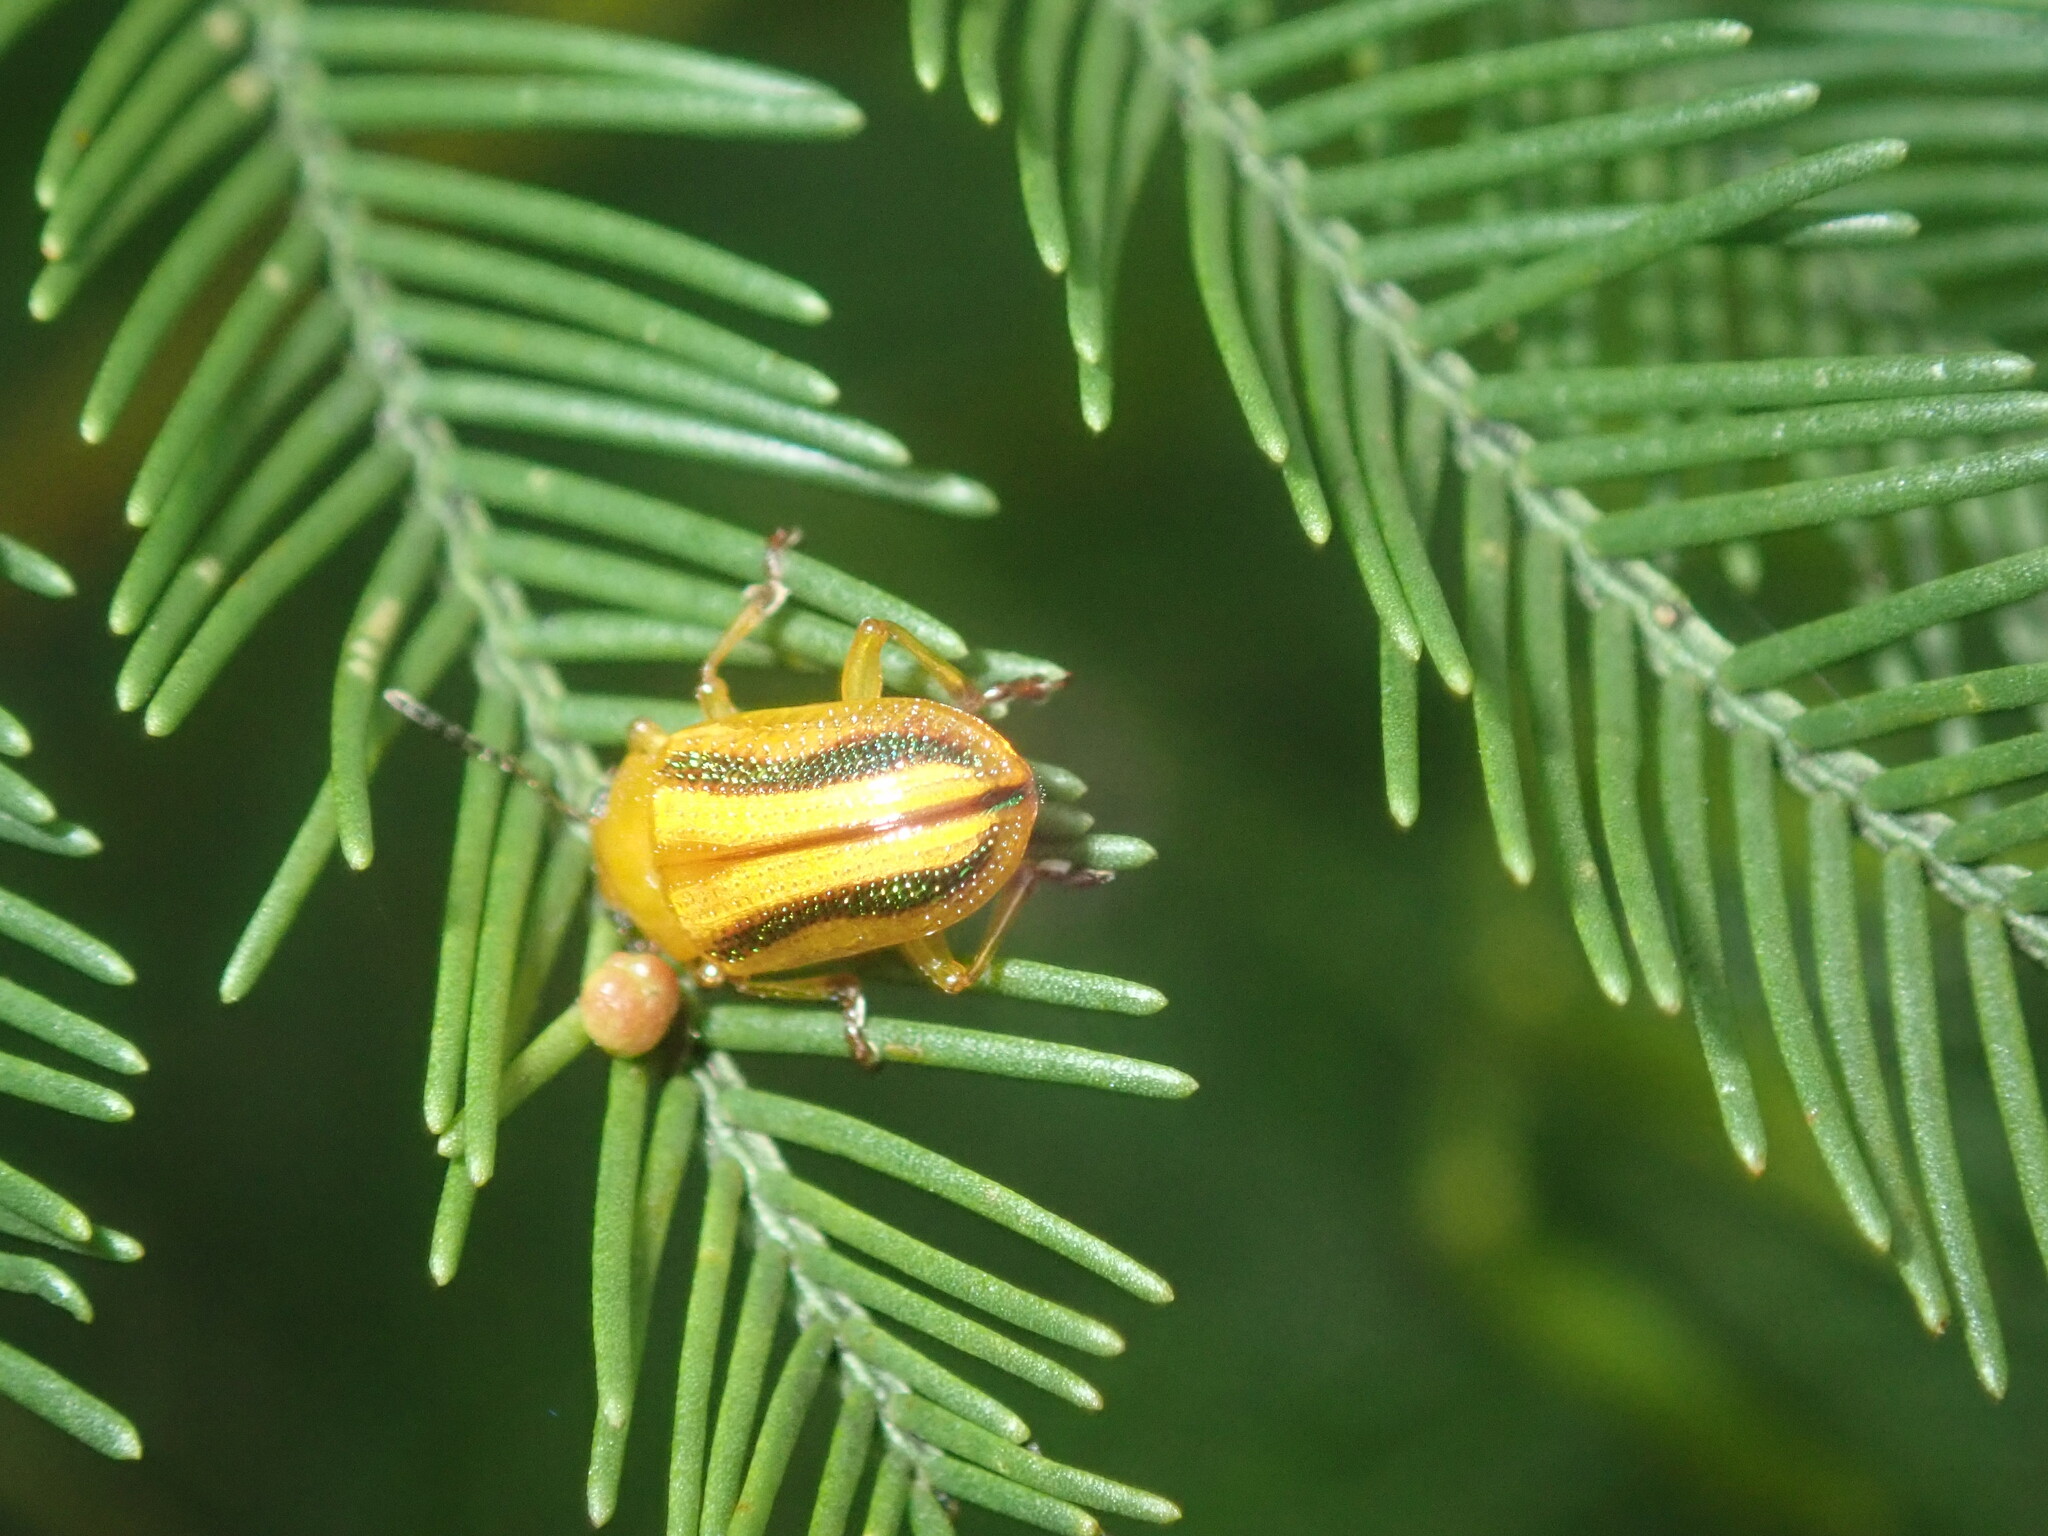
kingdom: Animalia
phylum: Arthropoda
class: Insecta
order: Coleoptera
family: Chrysomelidae
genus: Calomela
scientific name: Calomela
